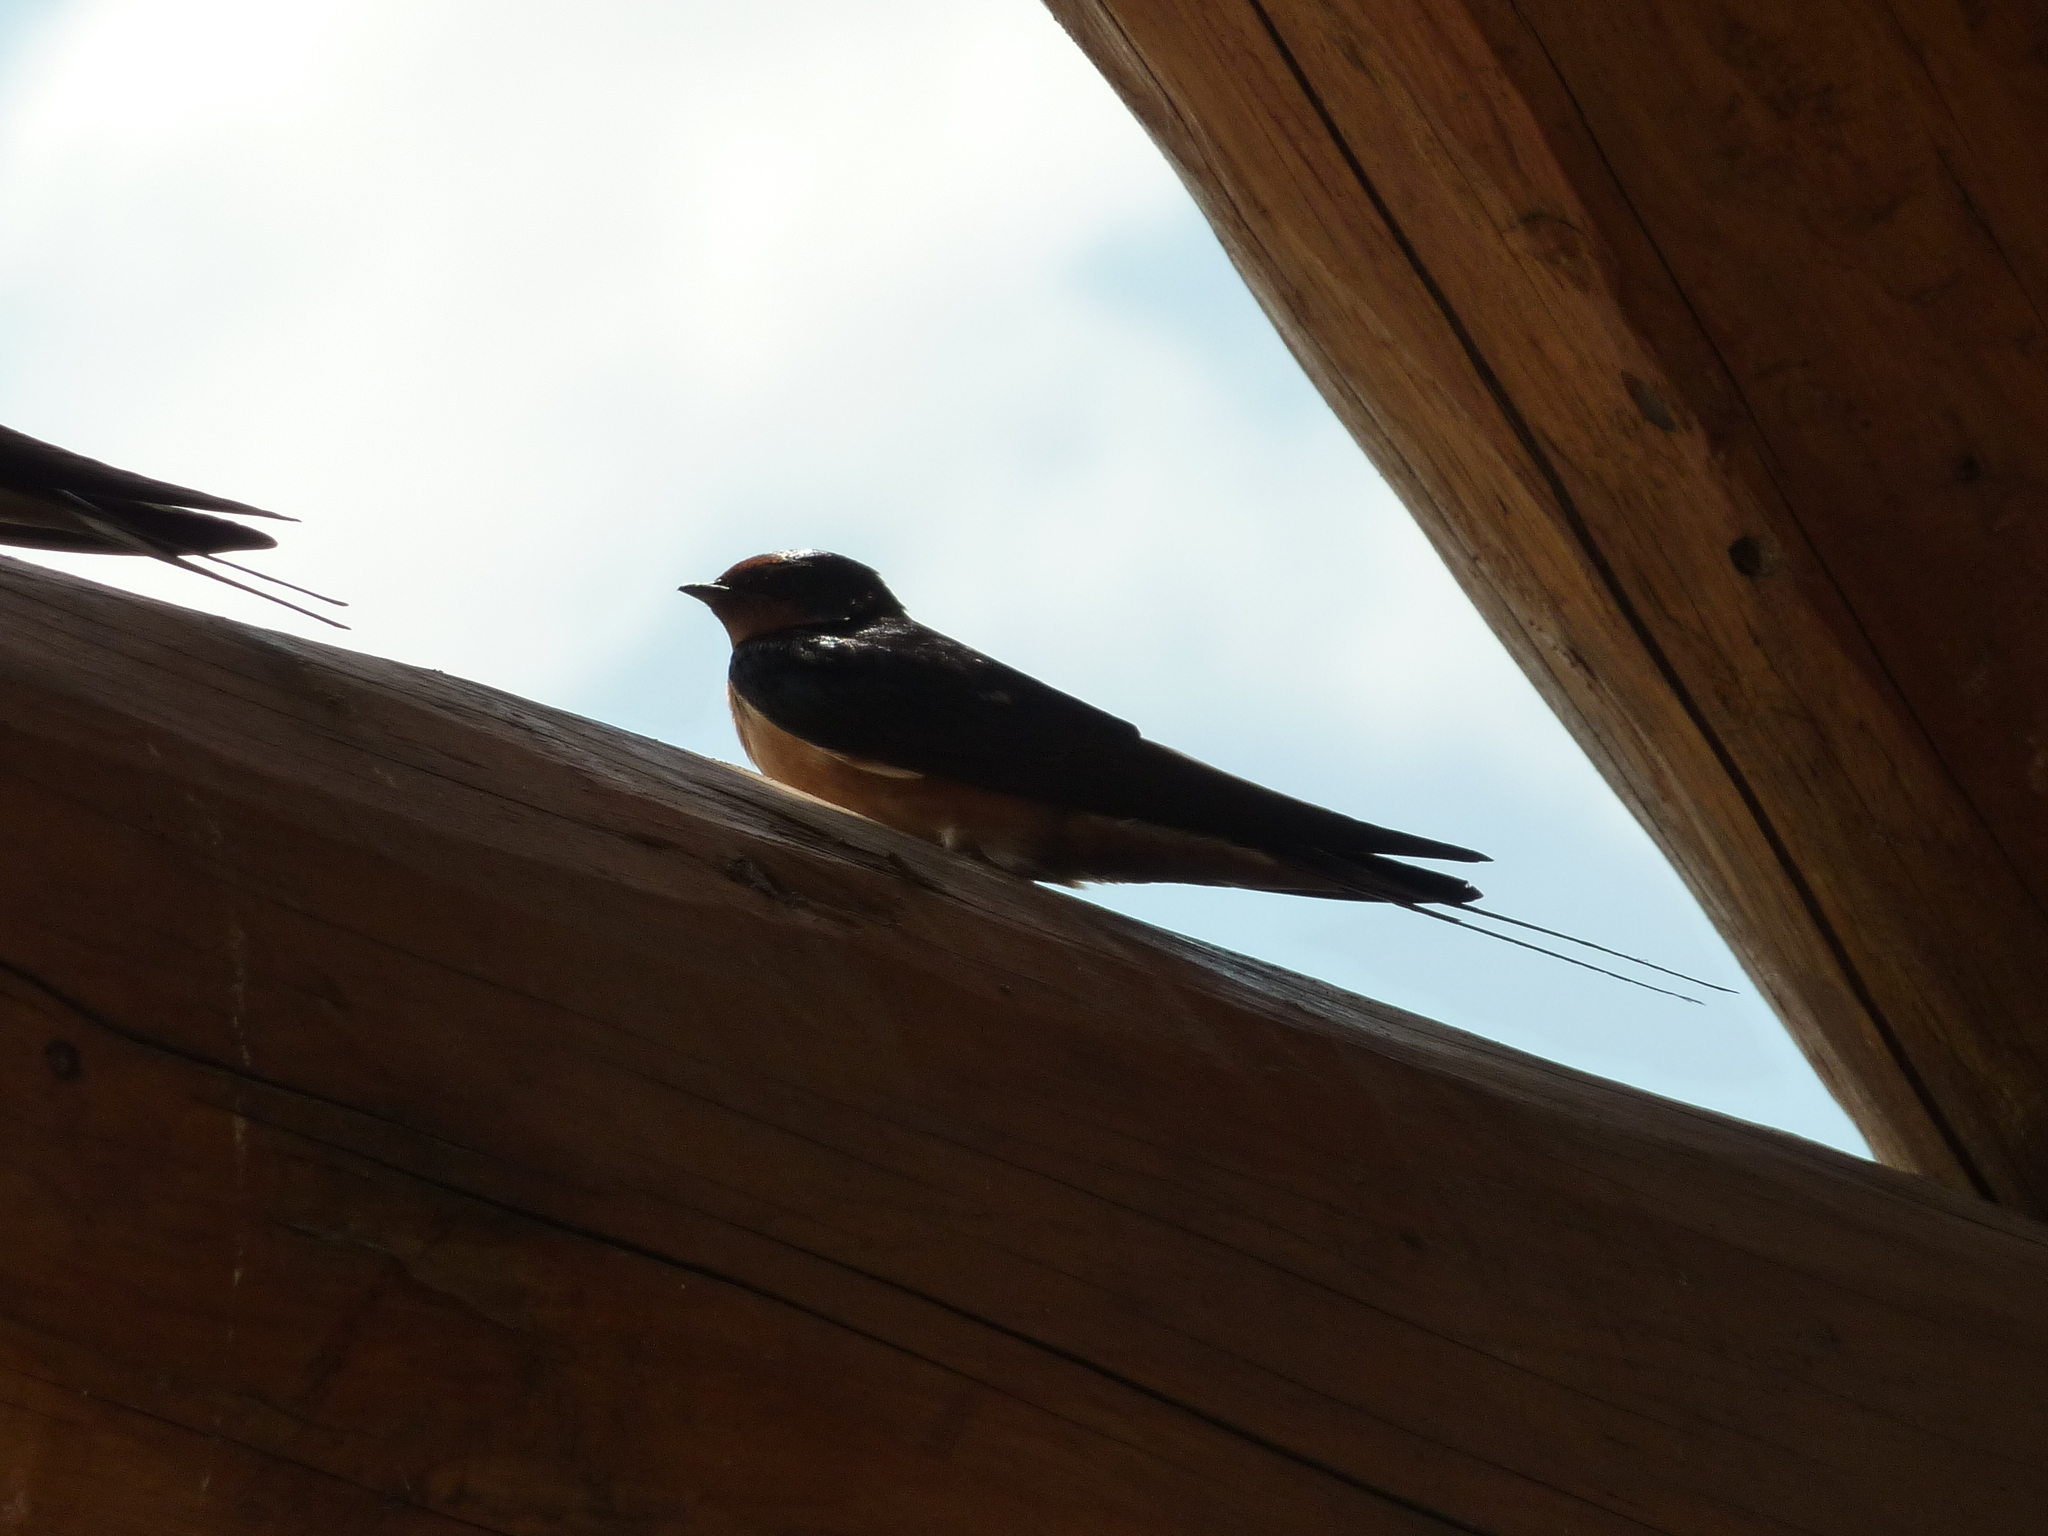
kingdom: Animalia
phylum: Chordata
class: Aves
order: Passeriformes
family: Hirundinidae
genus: Hirundo
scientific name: Hirundo rustica
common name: Barn swallow
